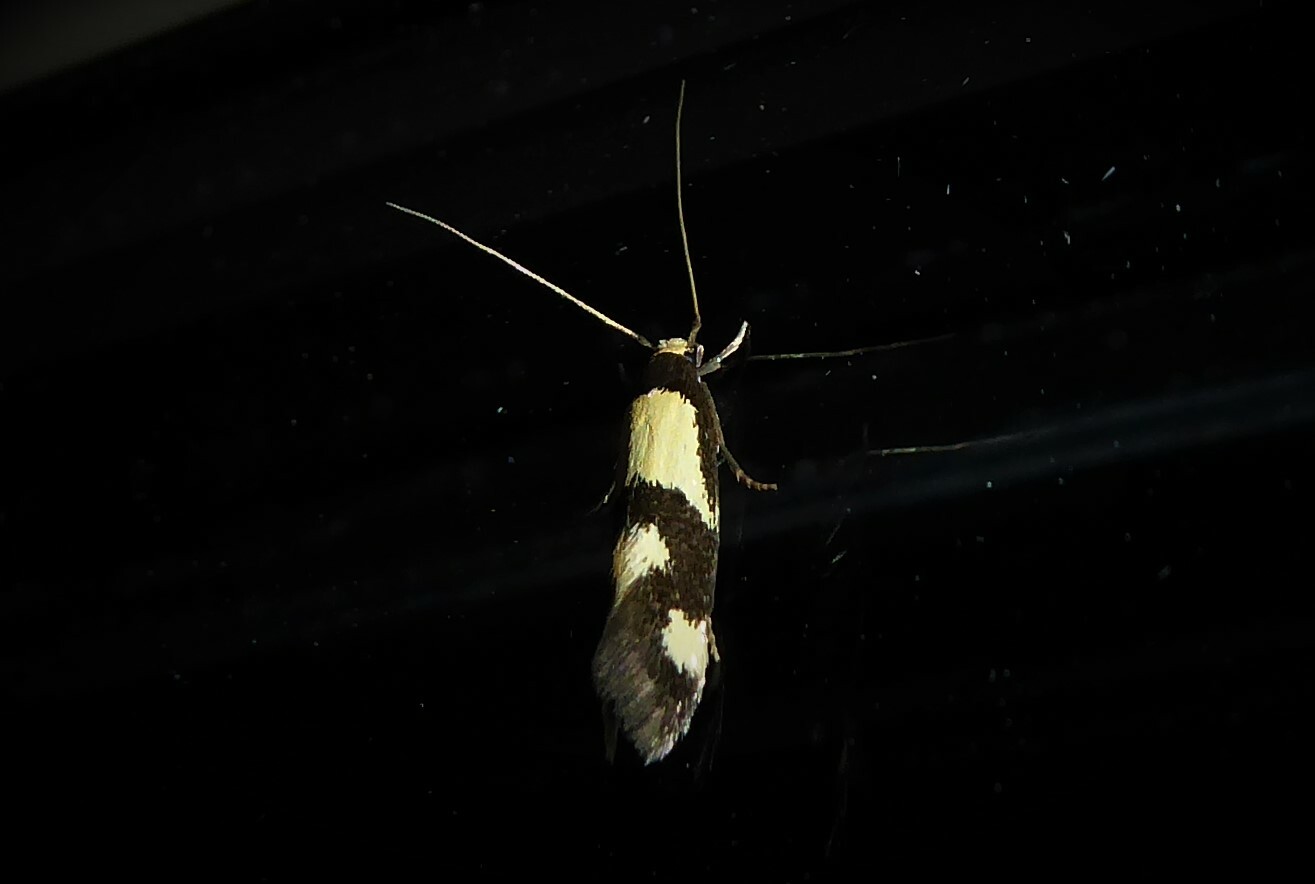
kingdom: Animalia
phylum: Arthropoda
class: Insecta
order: Lepidoptera
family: Tineidae
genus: Opogona
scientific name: Opogona comptella
